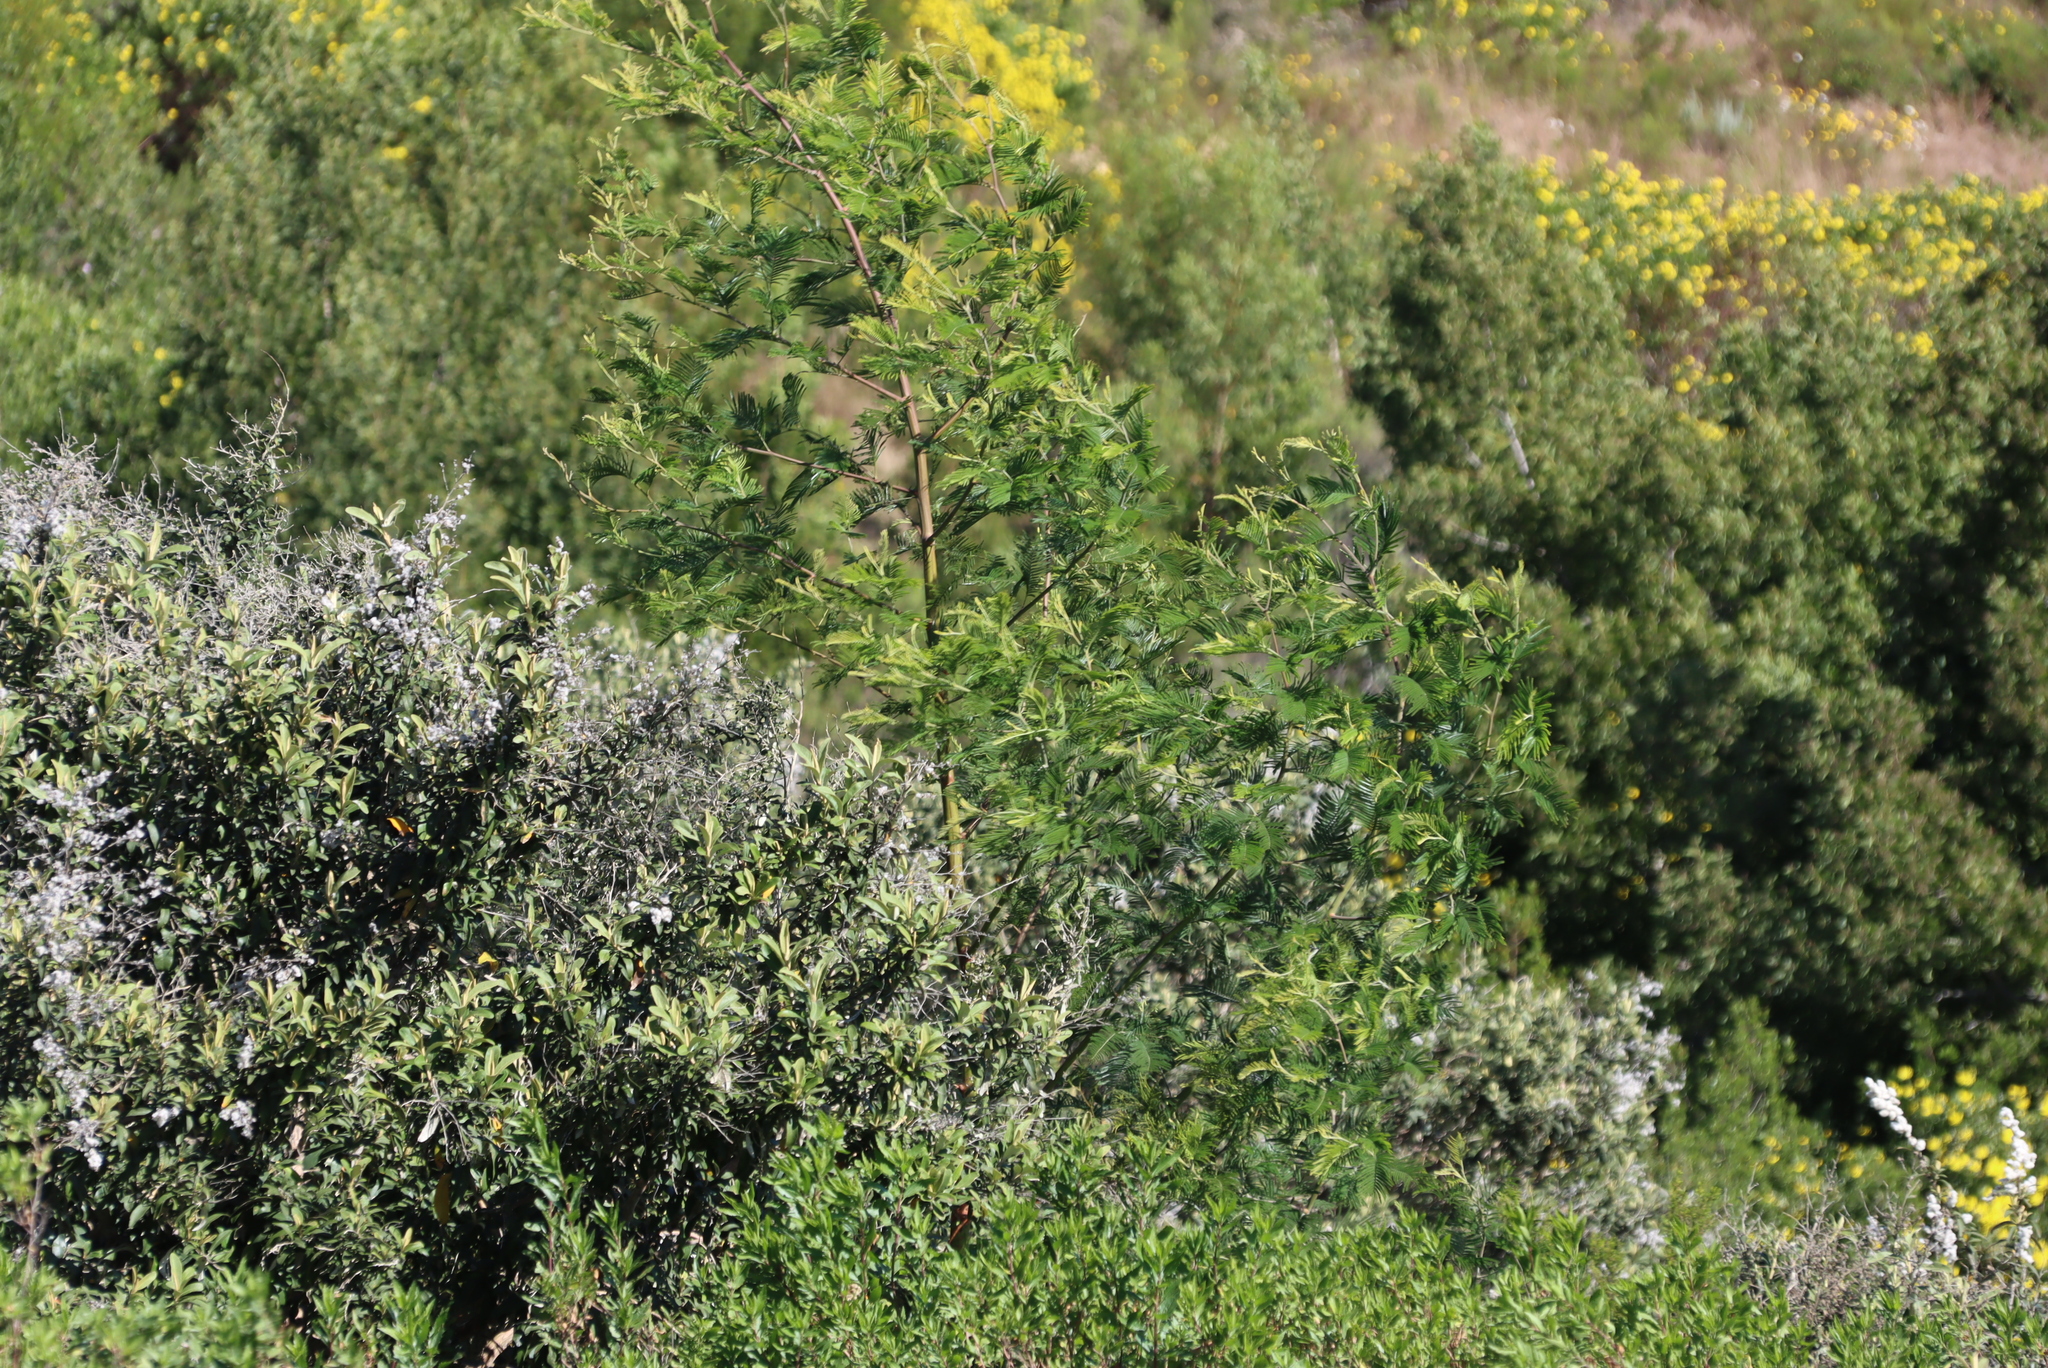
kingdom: Plantae
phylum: Tracheophyta
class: Magnoliopsida
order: Fabales
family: Fabaceae
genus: Acacia
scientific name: Acacia mearnsii
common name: Black wattle
